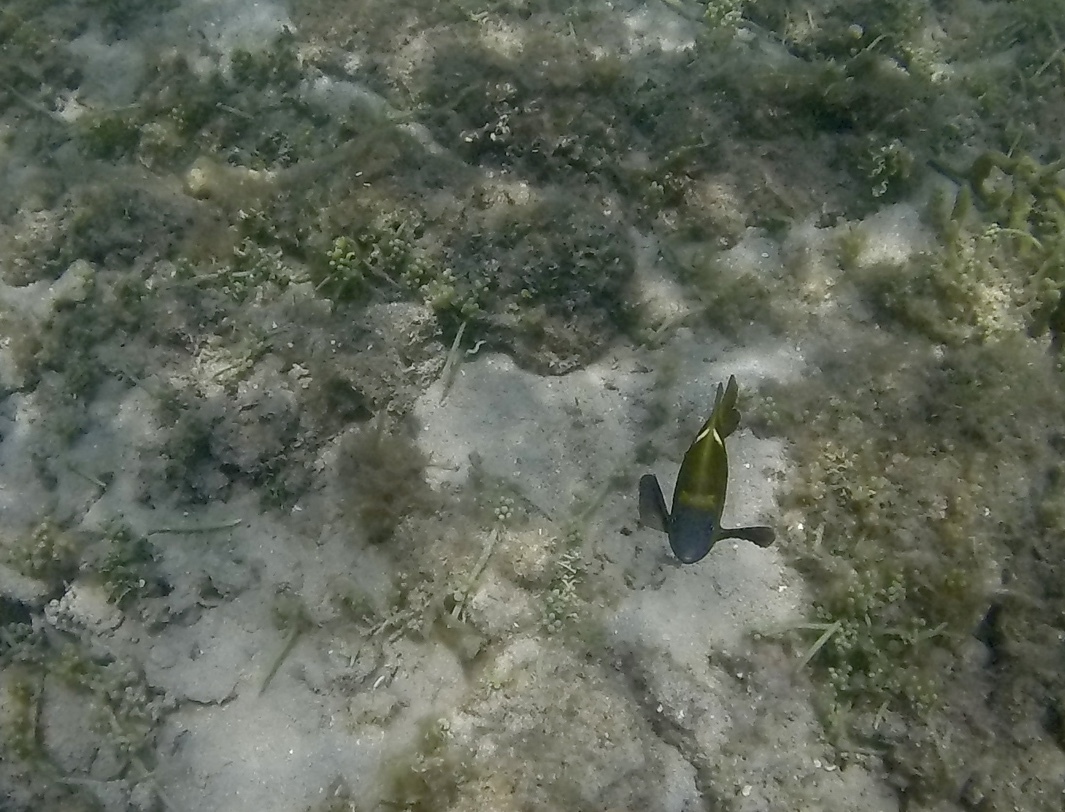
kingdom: Animalia
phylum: Chordata
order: Perciformes
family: Pomacentridae
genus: Dischistodus
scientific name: Dischistodus chrysopoecilus
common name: White-spot damsel
